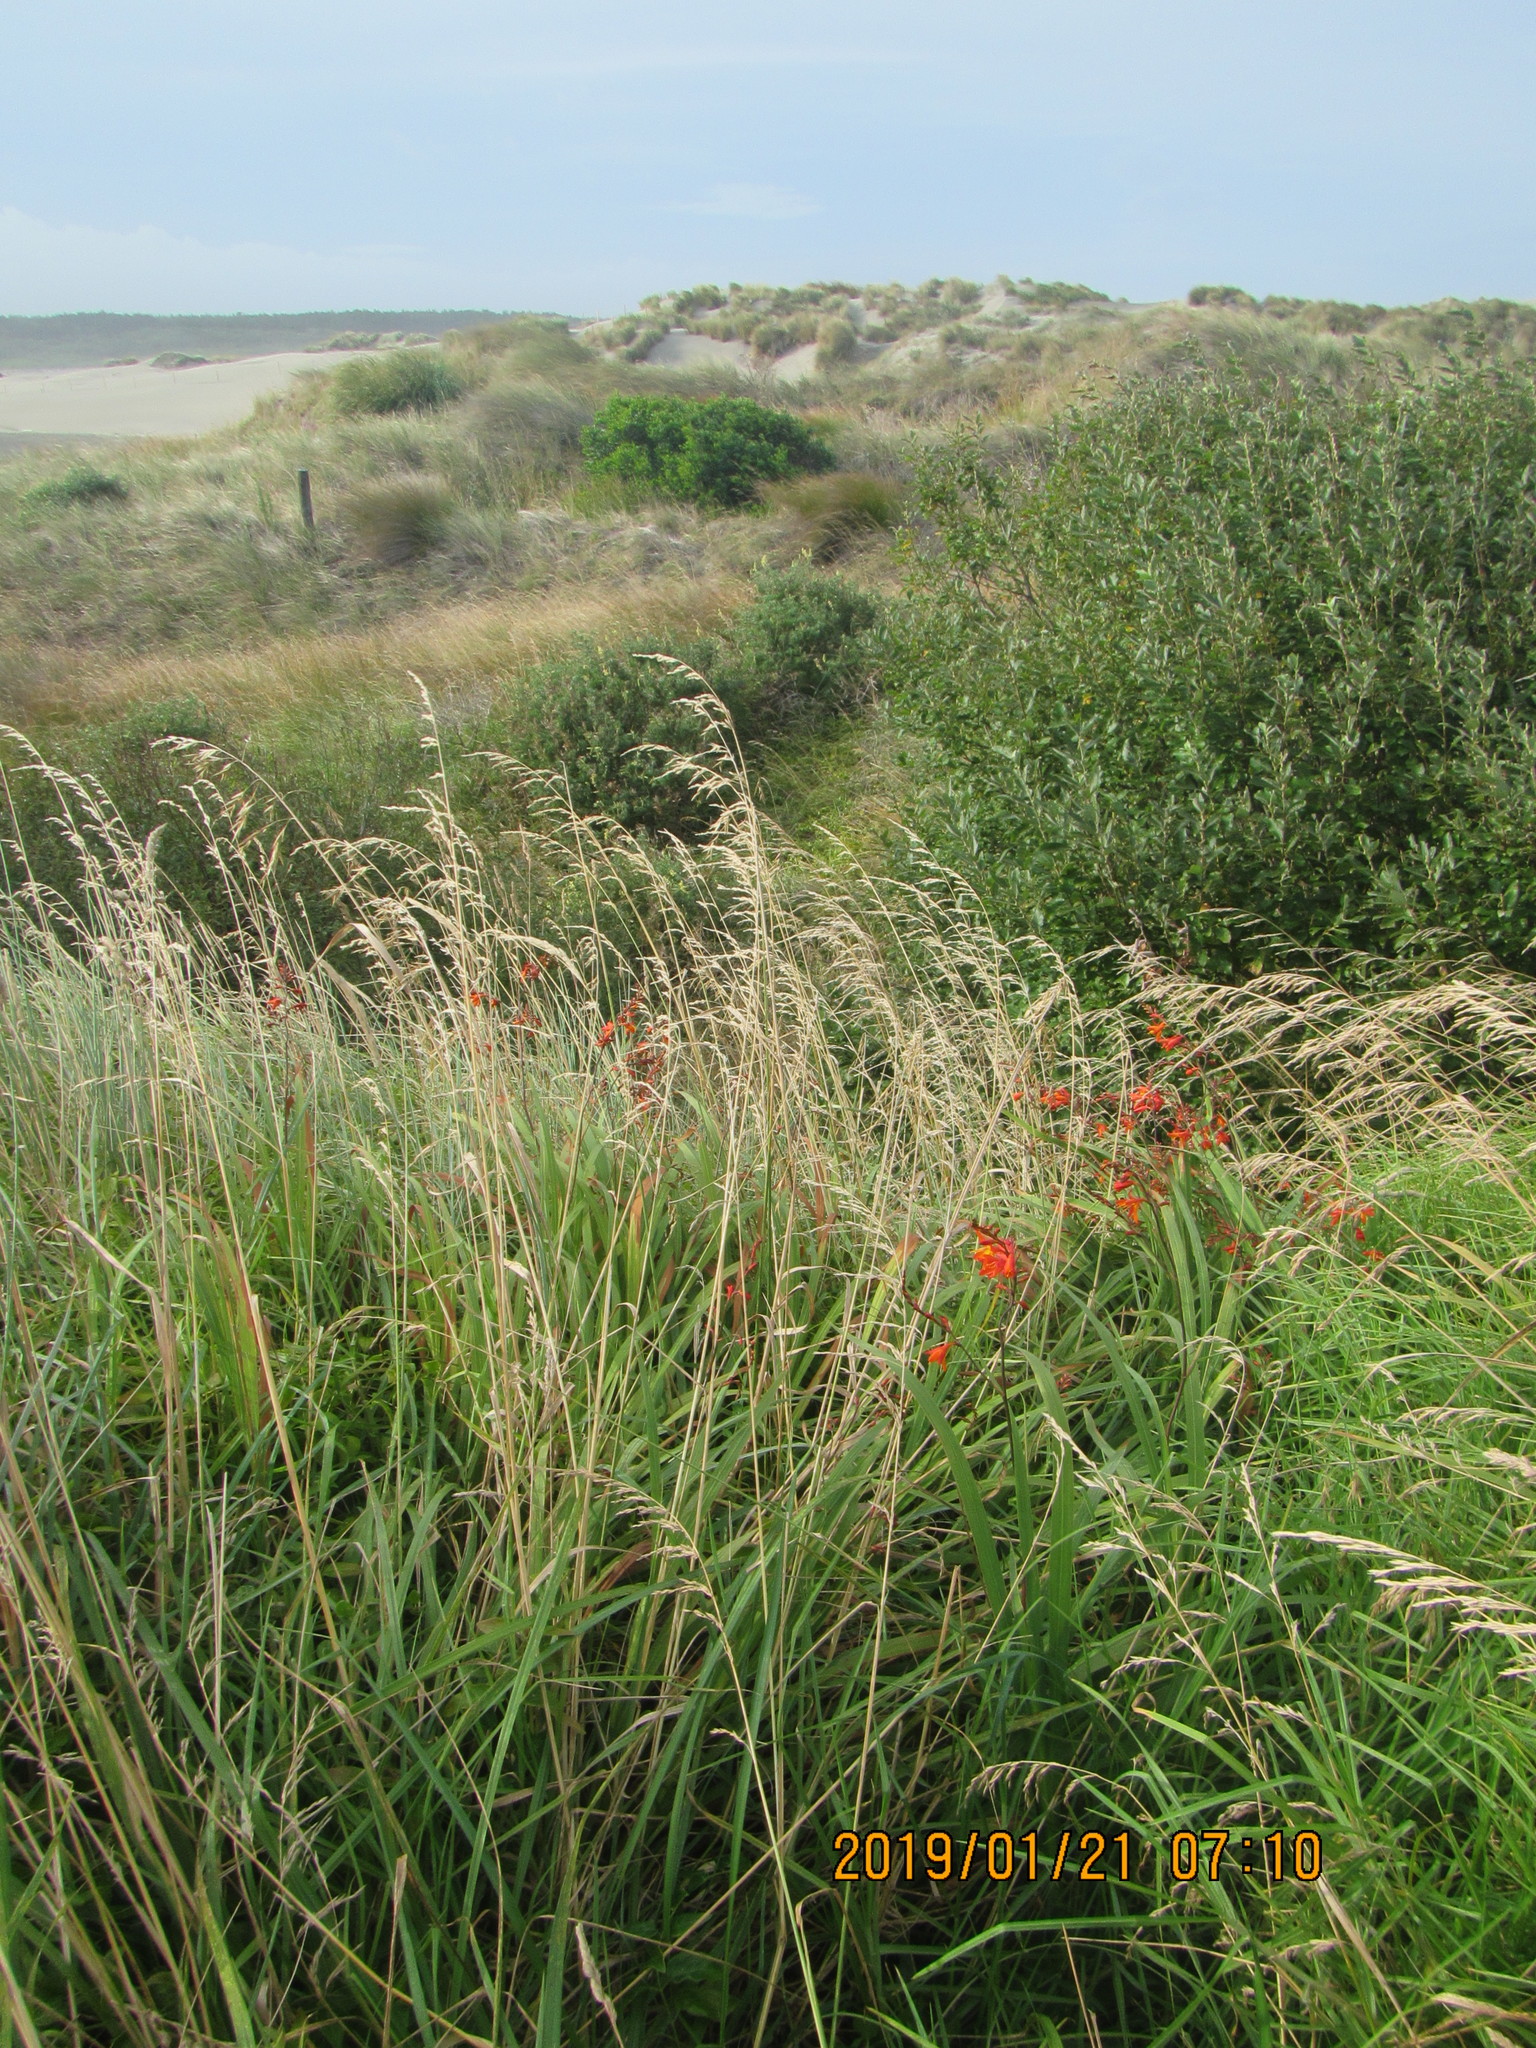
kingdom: Plantae
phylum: Tracheophyta
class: Liliopsida
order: Asparagales
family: Iridaceae
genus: Crocosmia
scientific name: Crocosmia crocosmiiflora
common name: Montbretia
